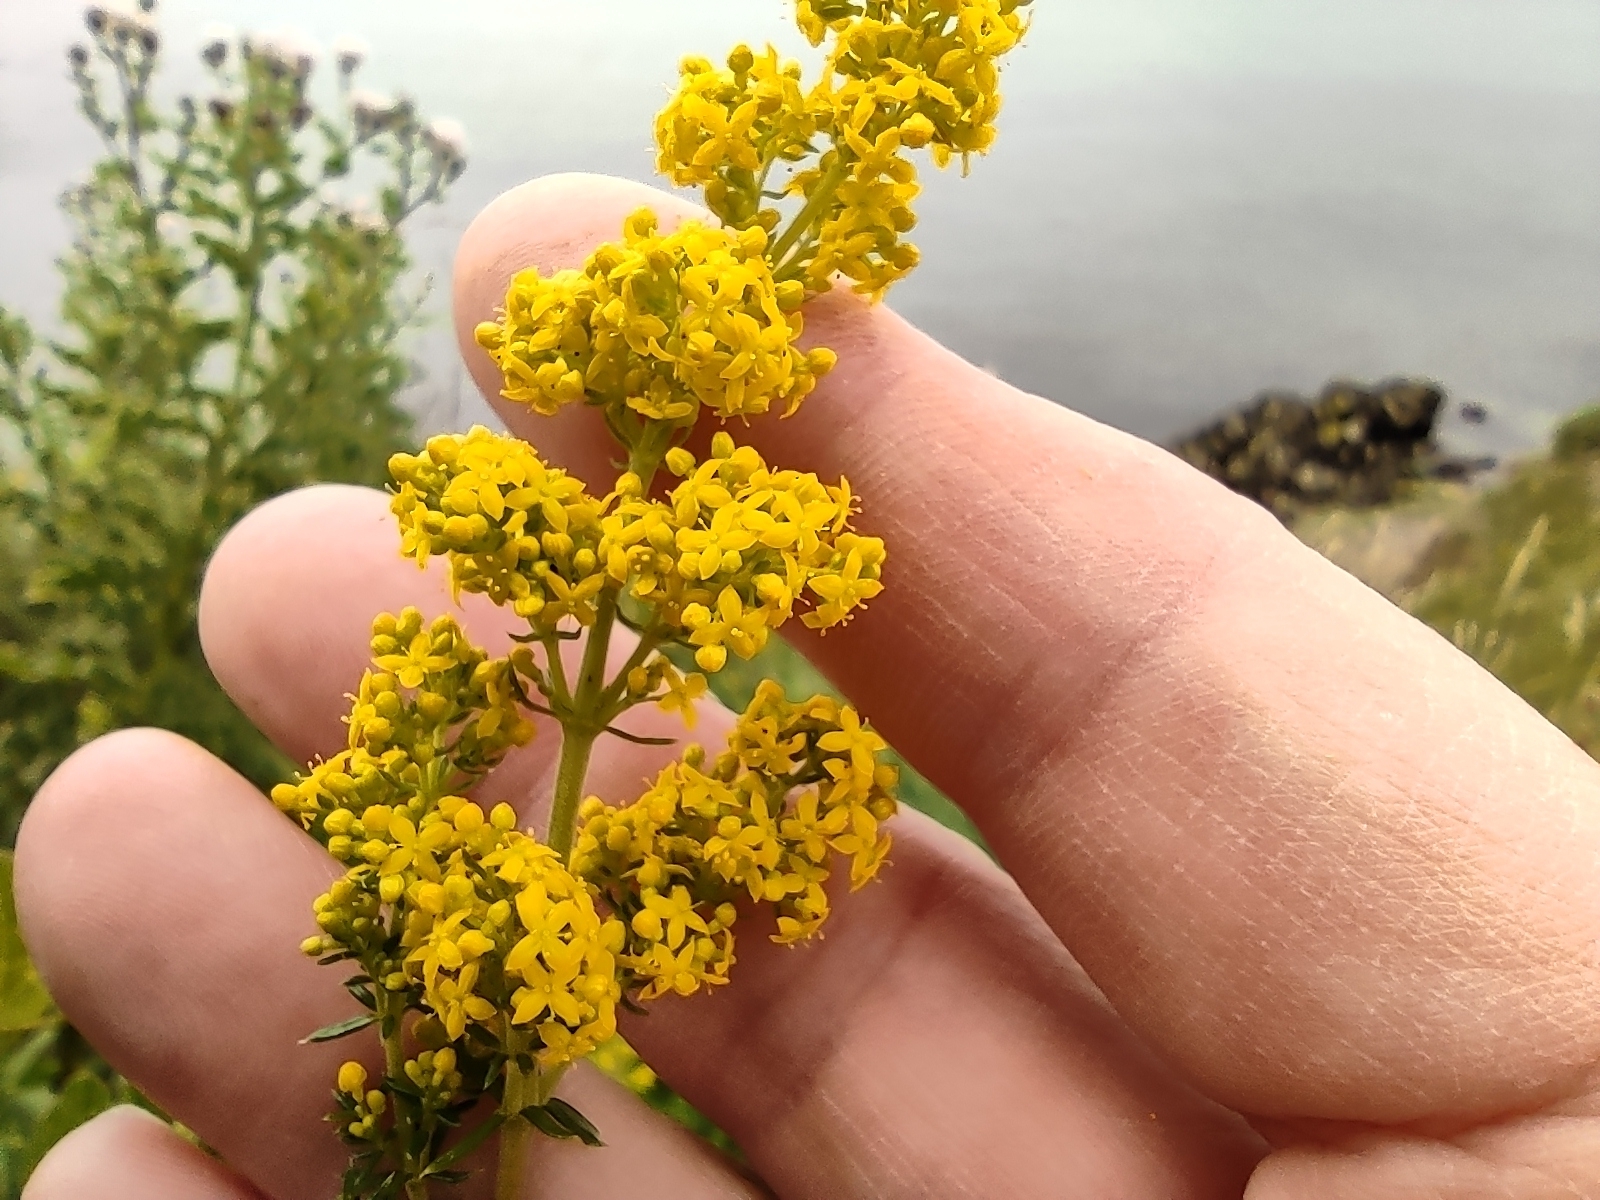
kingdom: Plantae
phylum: Tracheophyta
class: Magnoliopsida
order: Gentianales
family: Rubiaceae
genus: Galium
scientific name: Galium verum
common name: Lady's bedstraw
